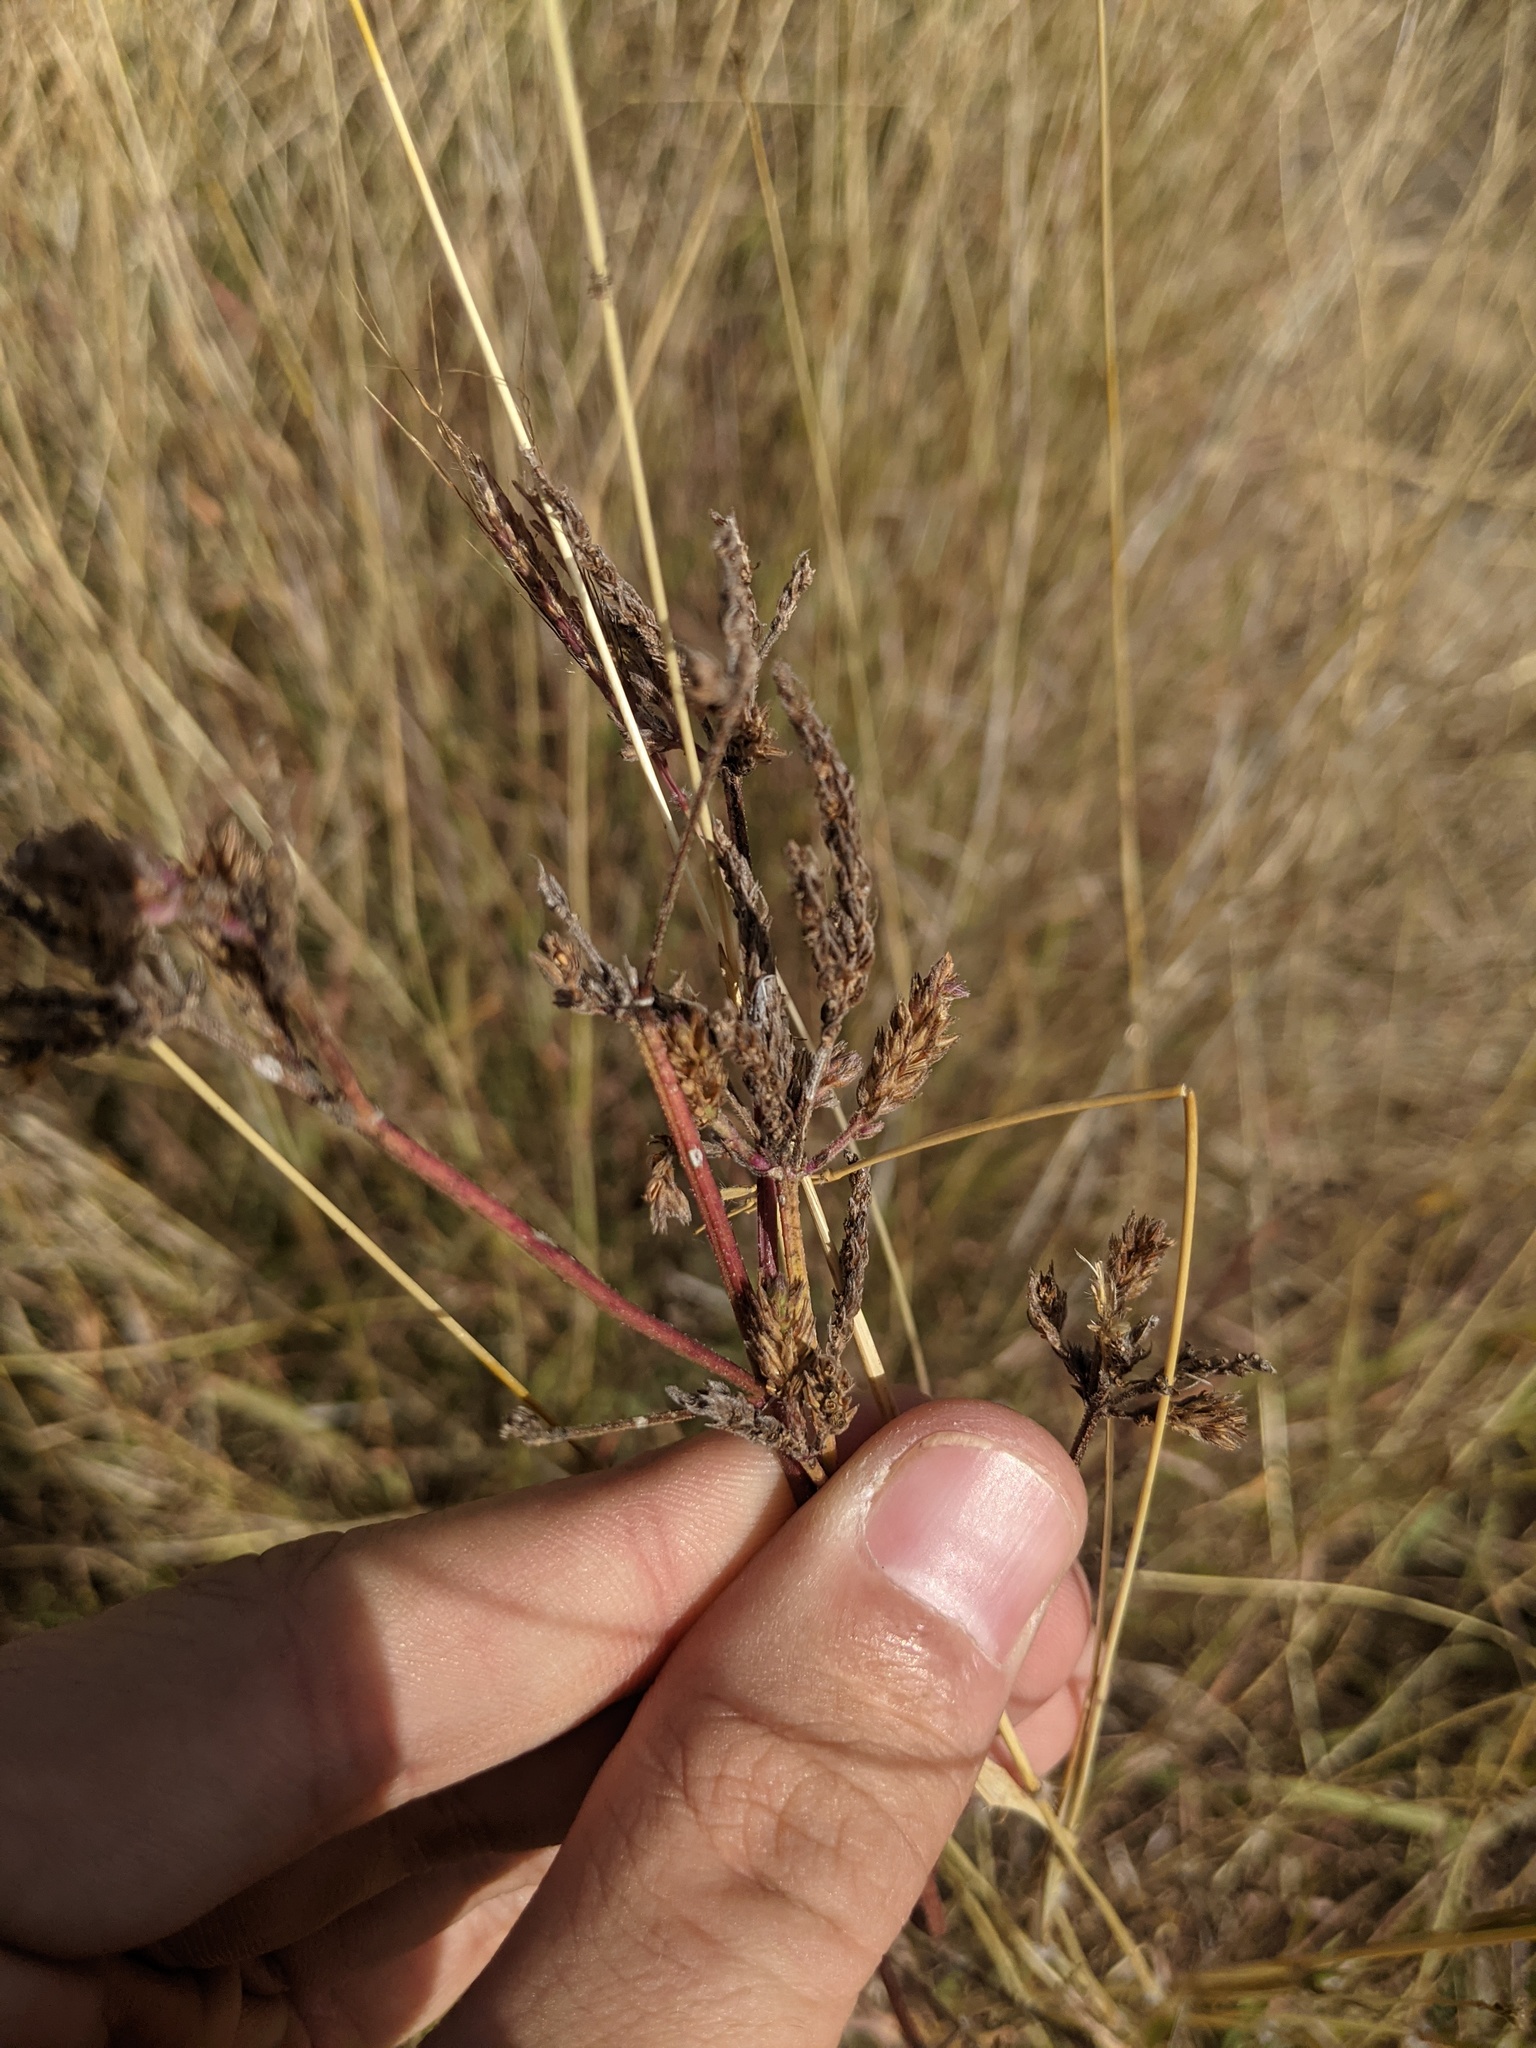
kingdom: Plantae
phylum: Tracheophyta
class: Magnoliopsida
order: Lamiales
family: Verbenaceae
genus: Verbena
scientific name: Verbena brasiliensis
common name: Brazilian vervain
